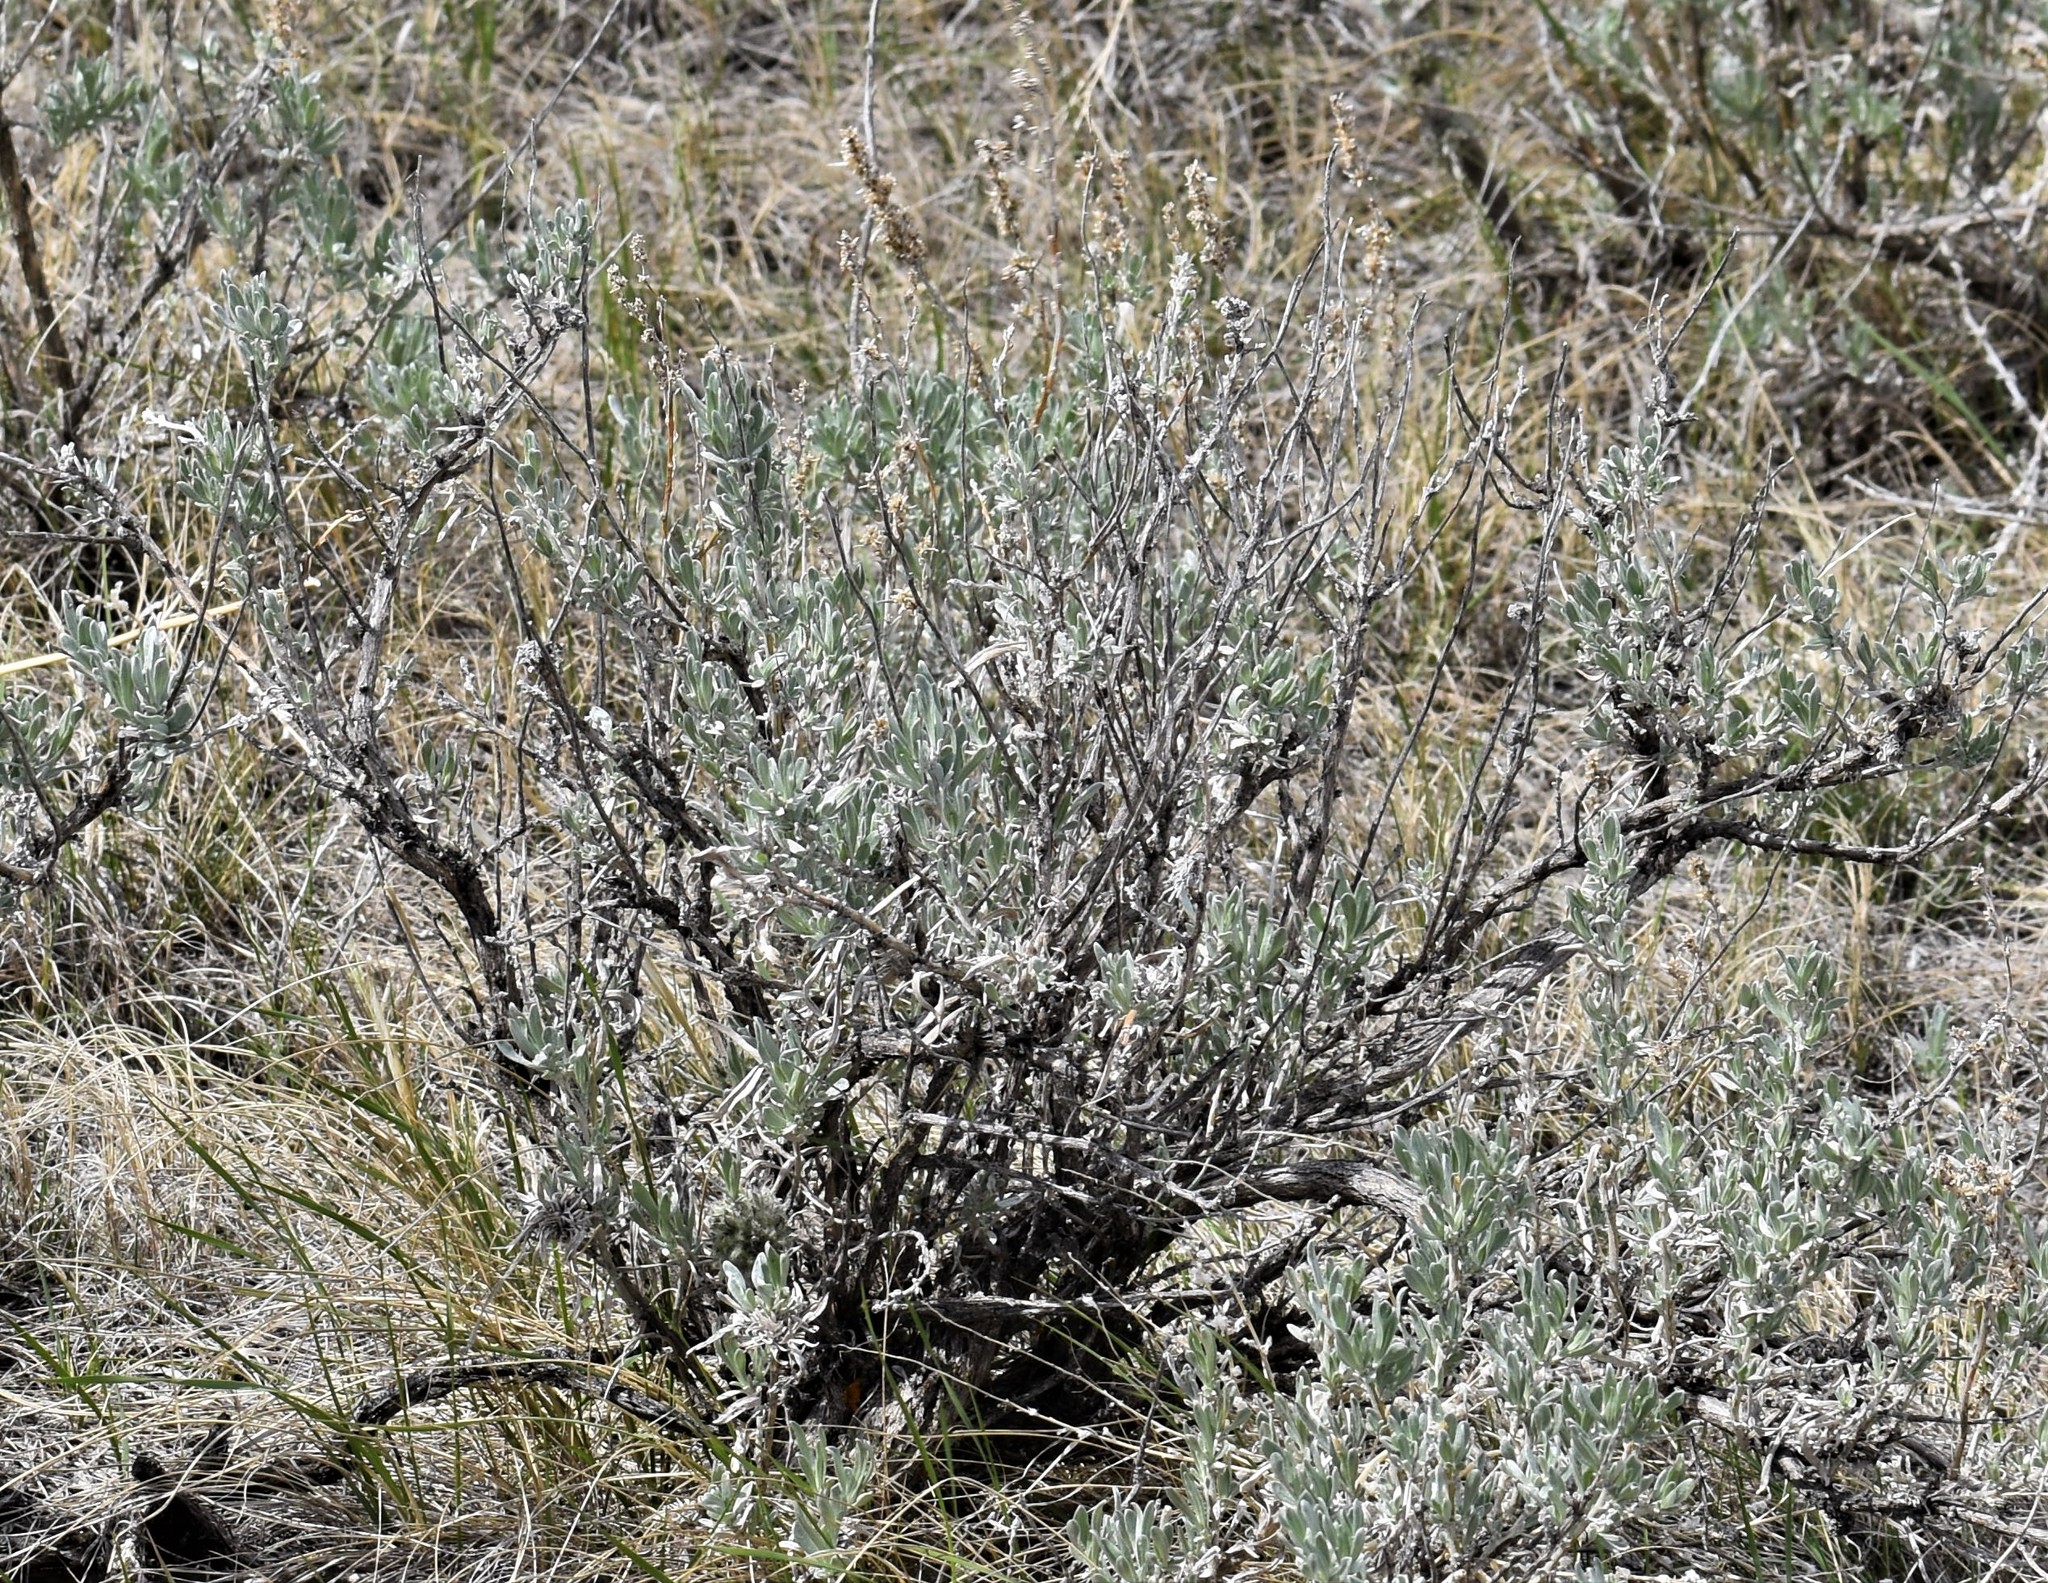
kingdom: Plantae
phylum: Tracheophyta
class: Magnoliopsida
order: Asterales
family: Asteraceae
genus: Artemisia
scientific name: Artemisia cana
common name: Silver sagebrush
